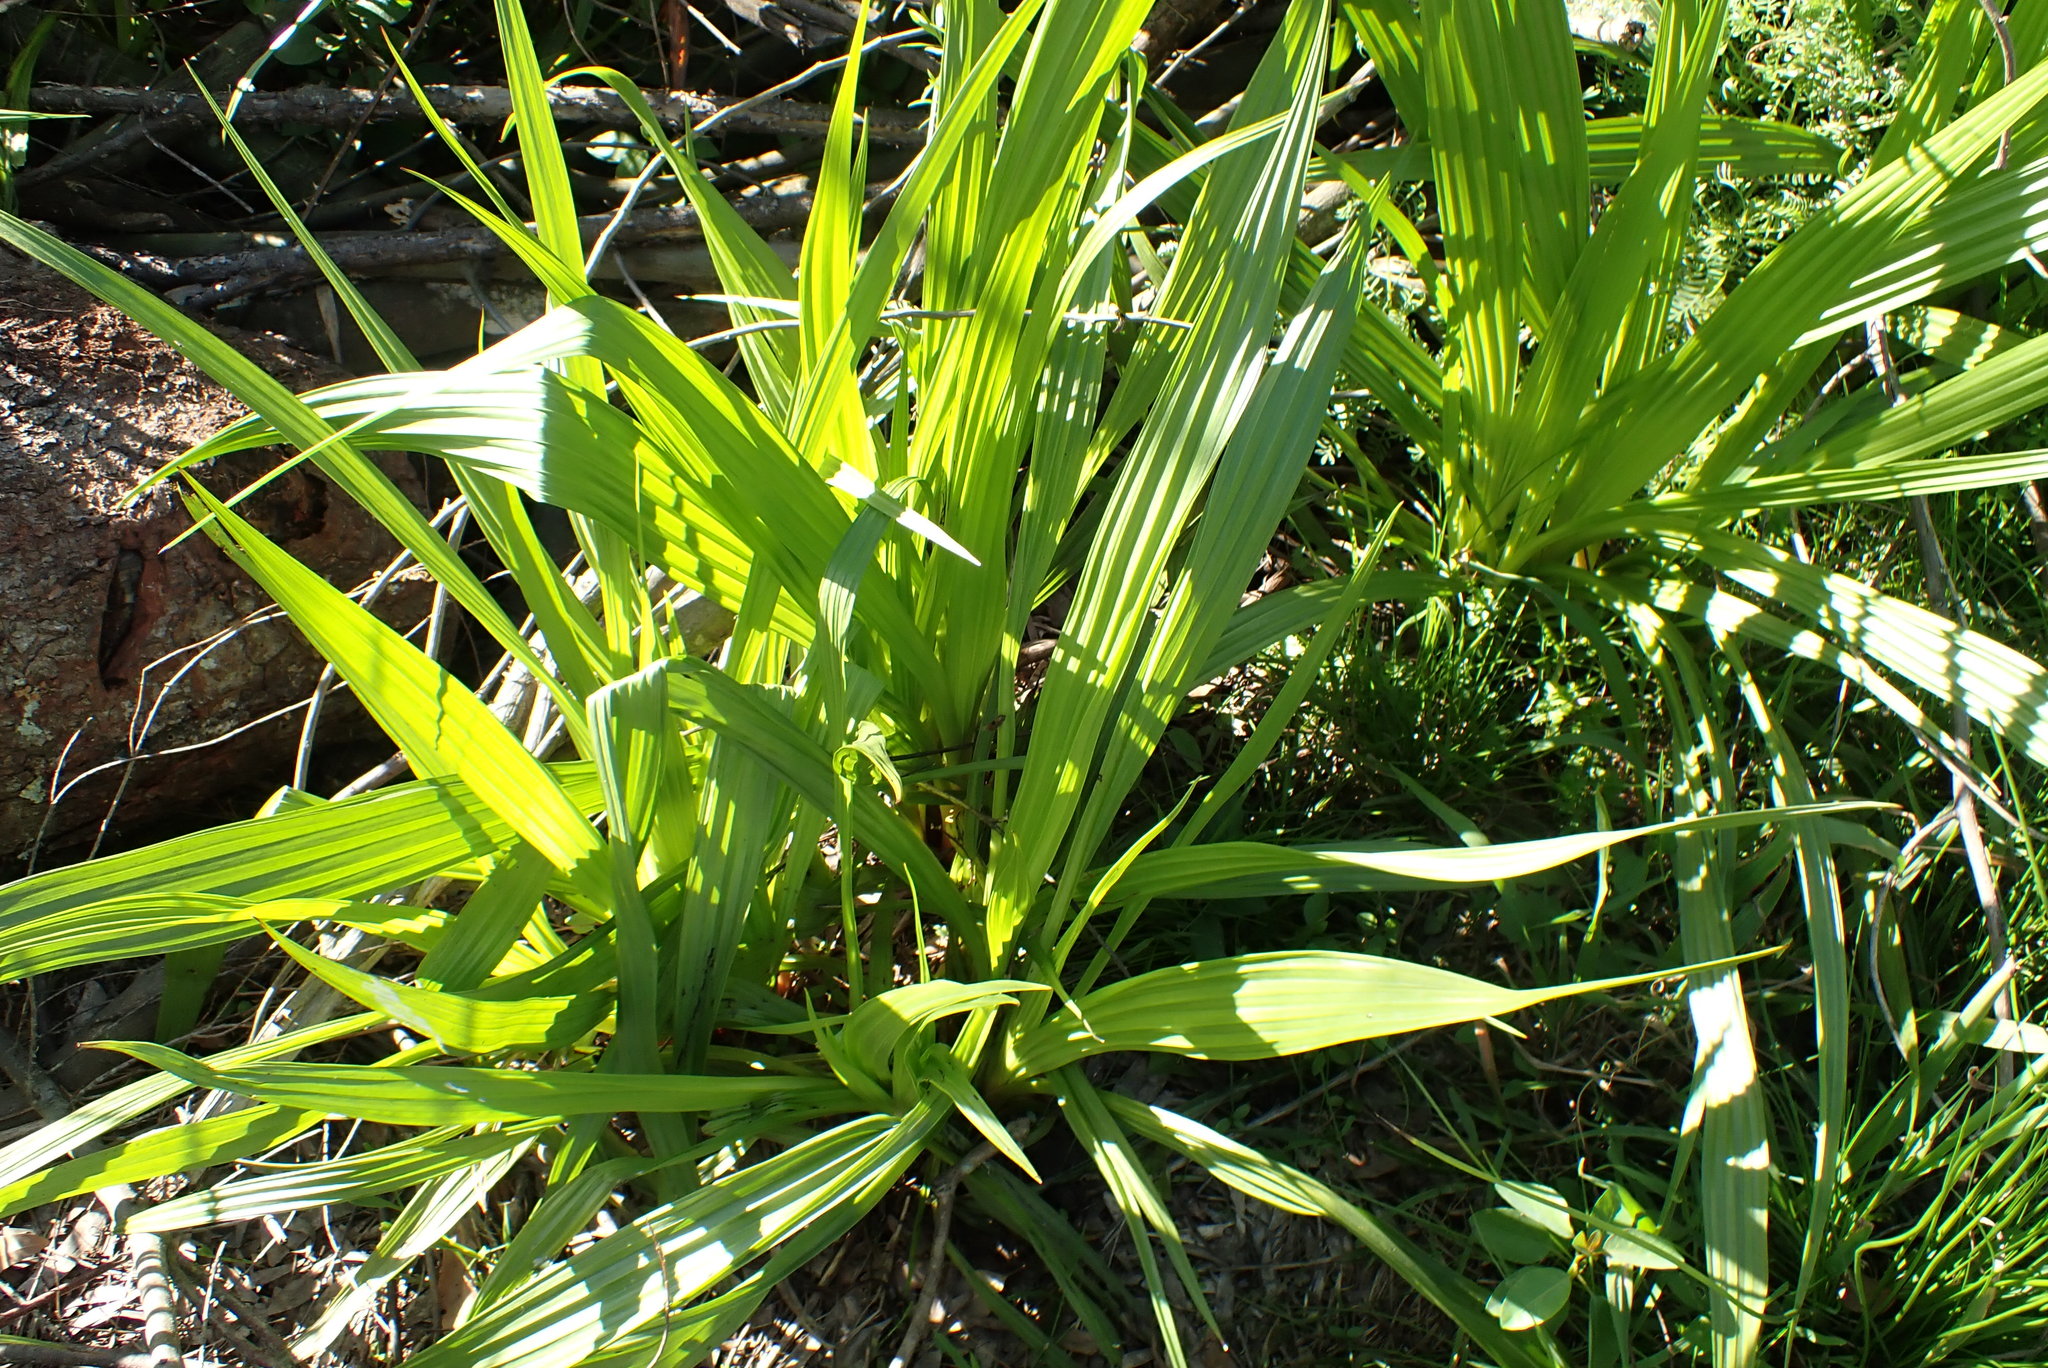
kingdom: Plantae
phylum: Tracheophyta
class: Liliopsida
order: Commelinales
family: Haemodoraceae
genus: Wachendorfia
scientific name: Wachendorfia thyrsiflora
